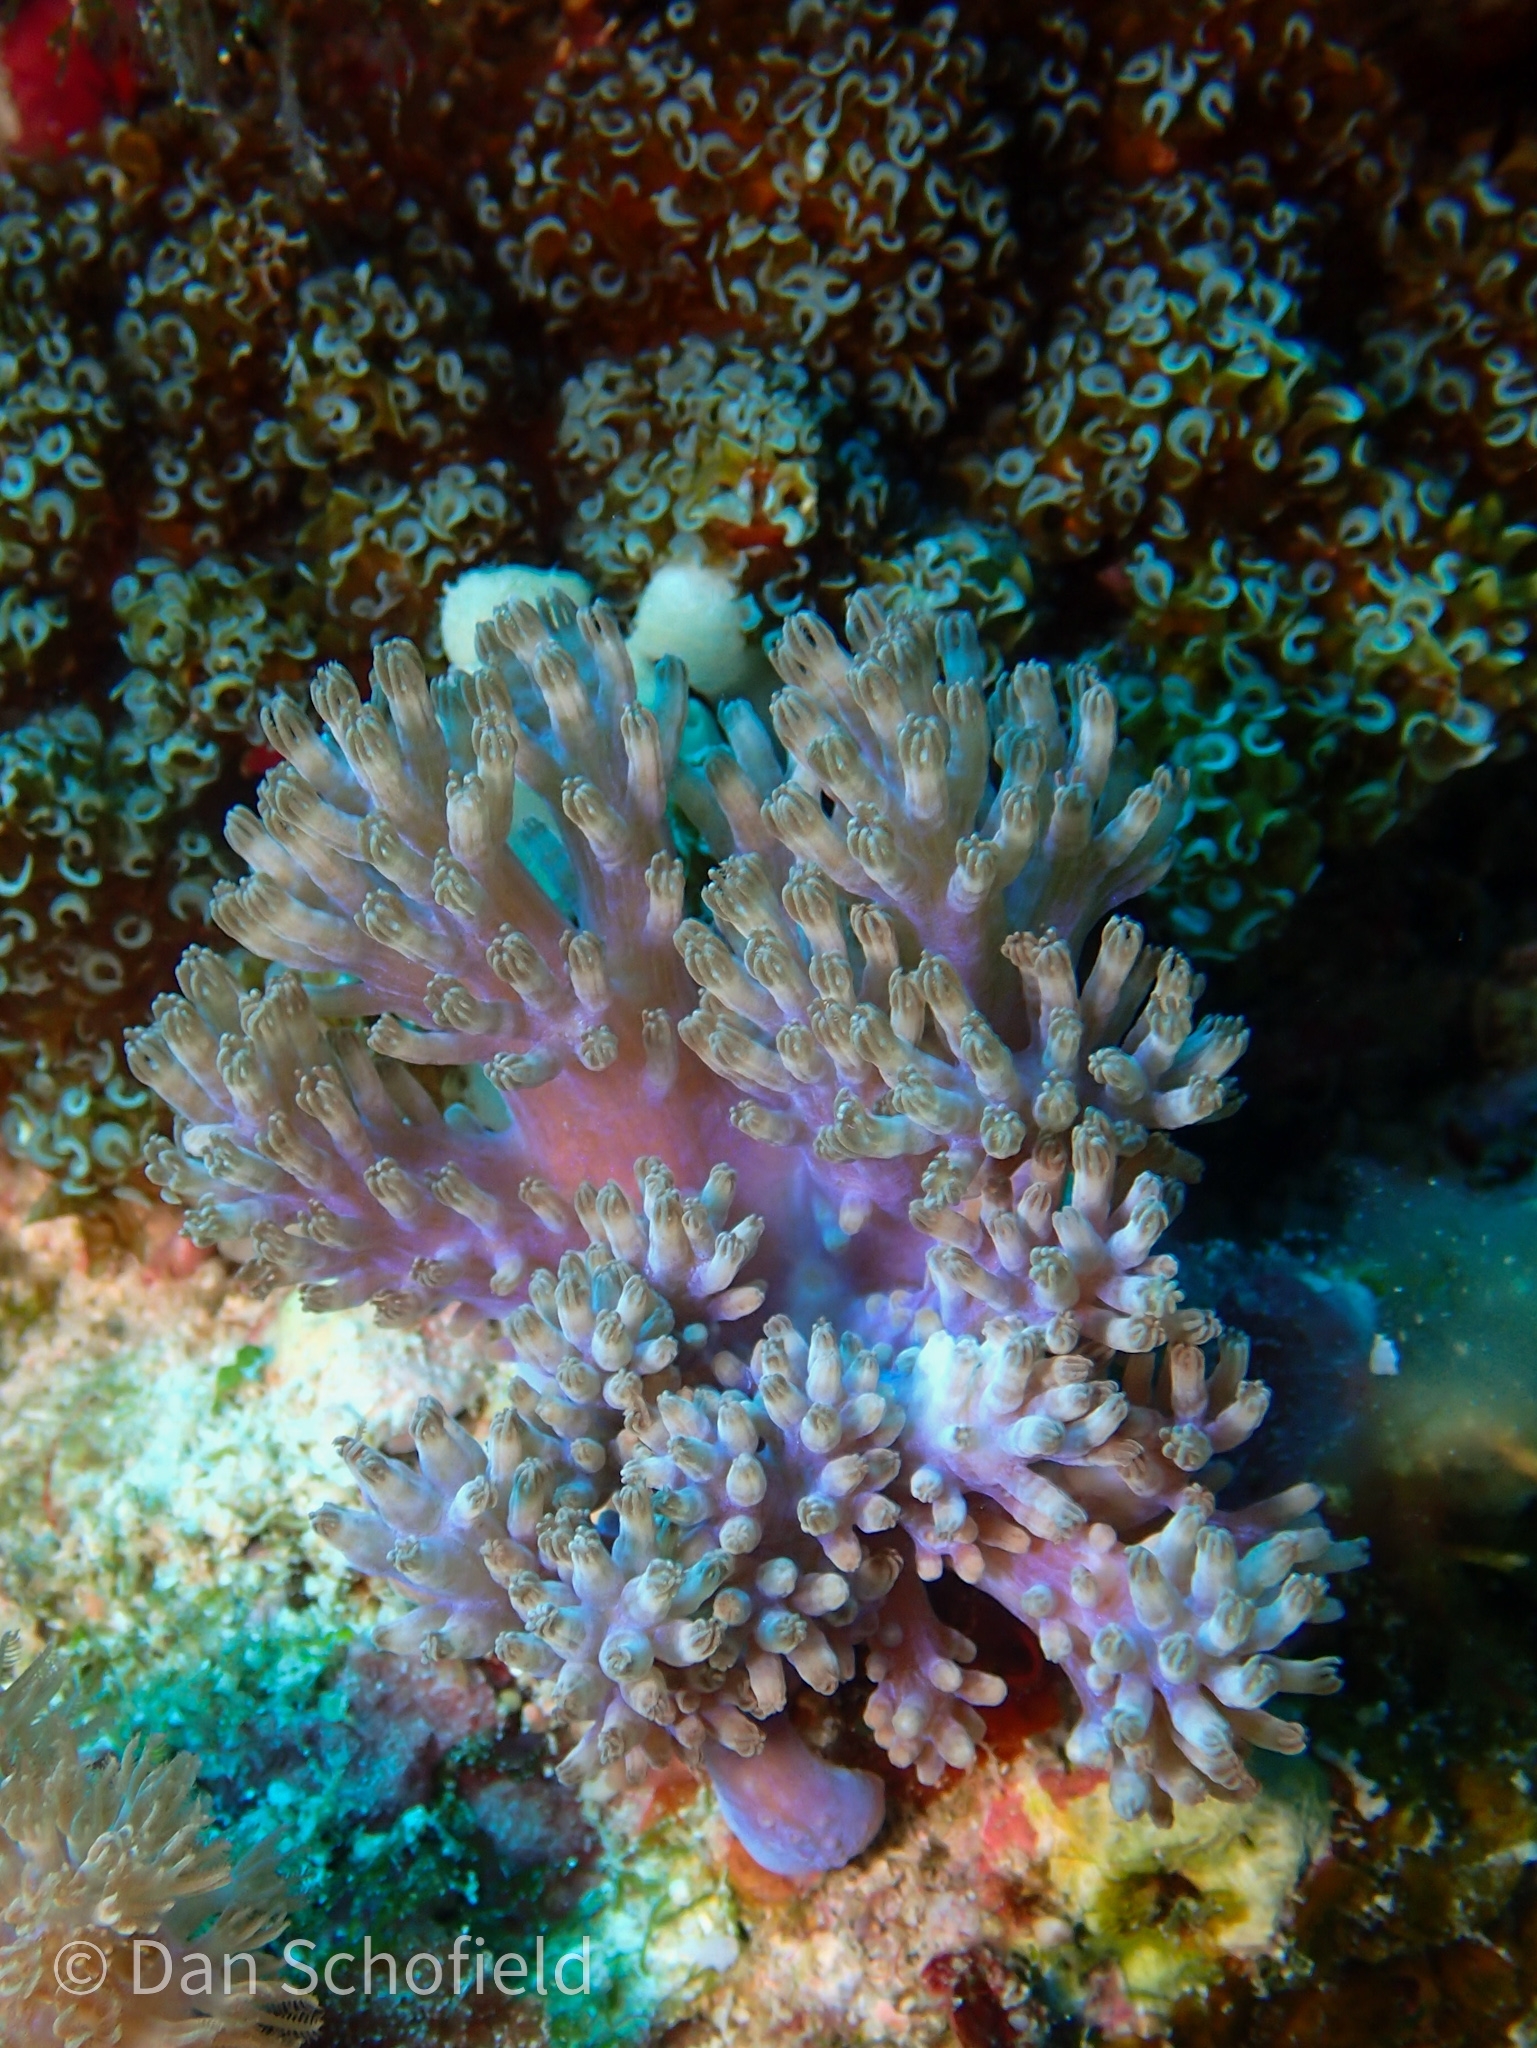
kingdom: Animalia
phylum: Cnidaria
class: Anthozoa
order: Malacalcyonacea
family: Xeniidae
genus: Conglomeratusclera
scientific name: Conglomeratusclera coerulea
